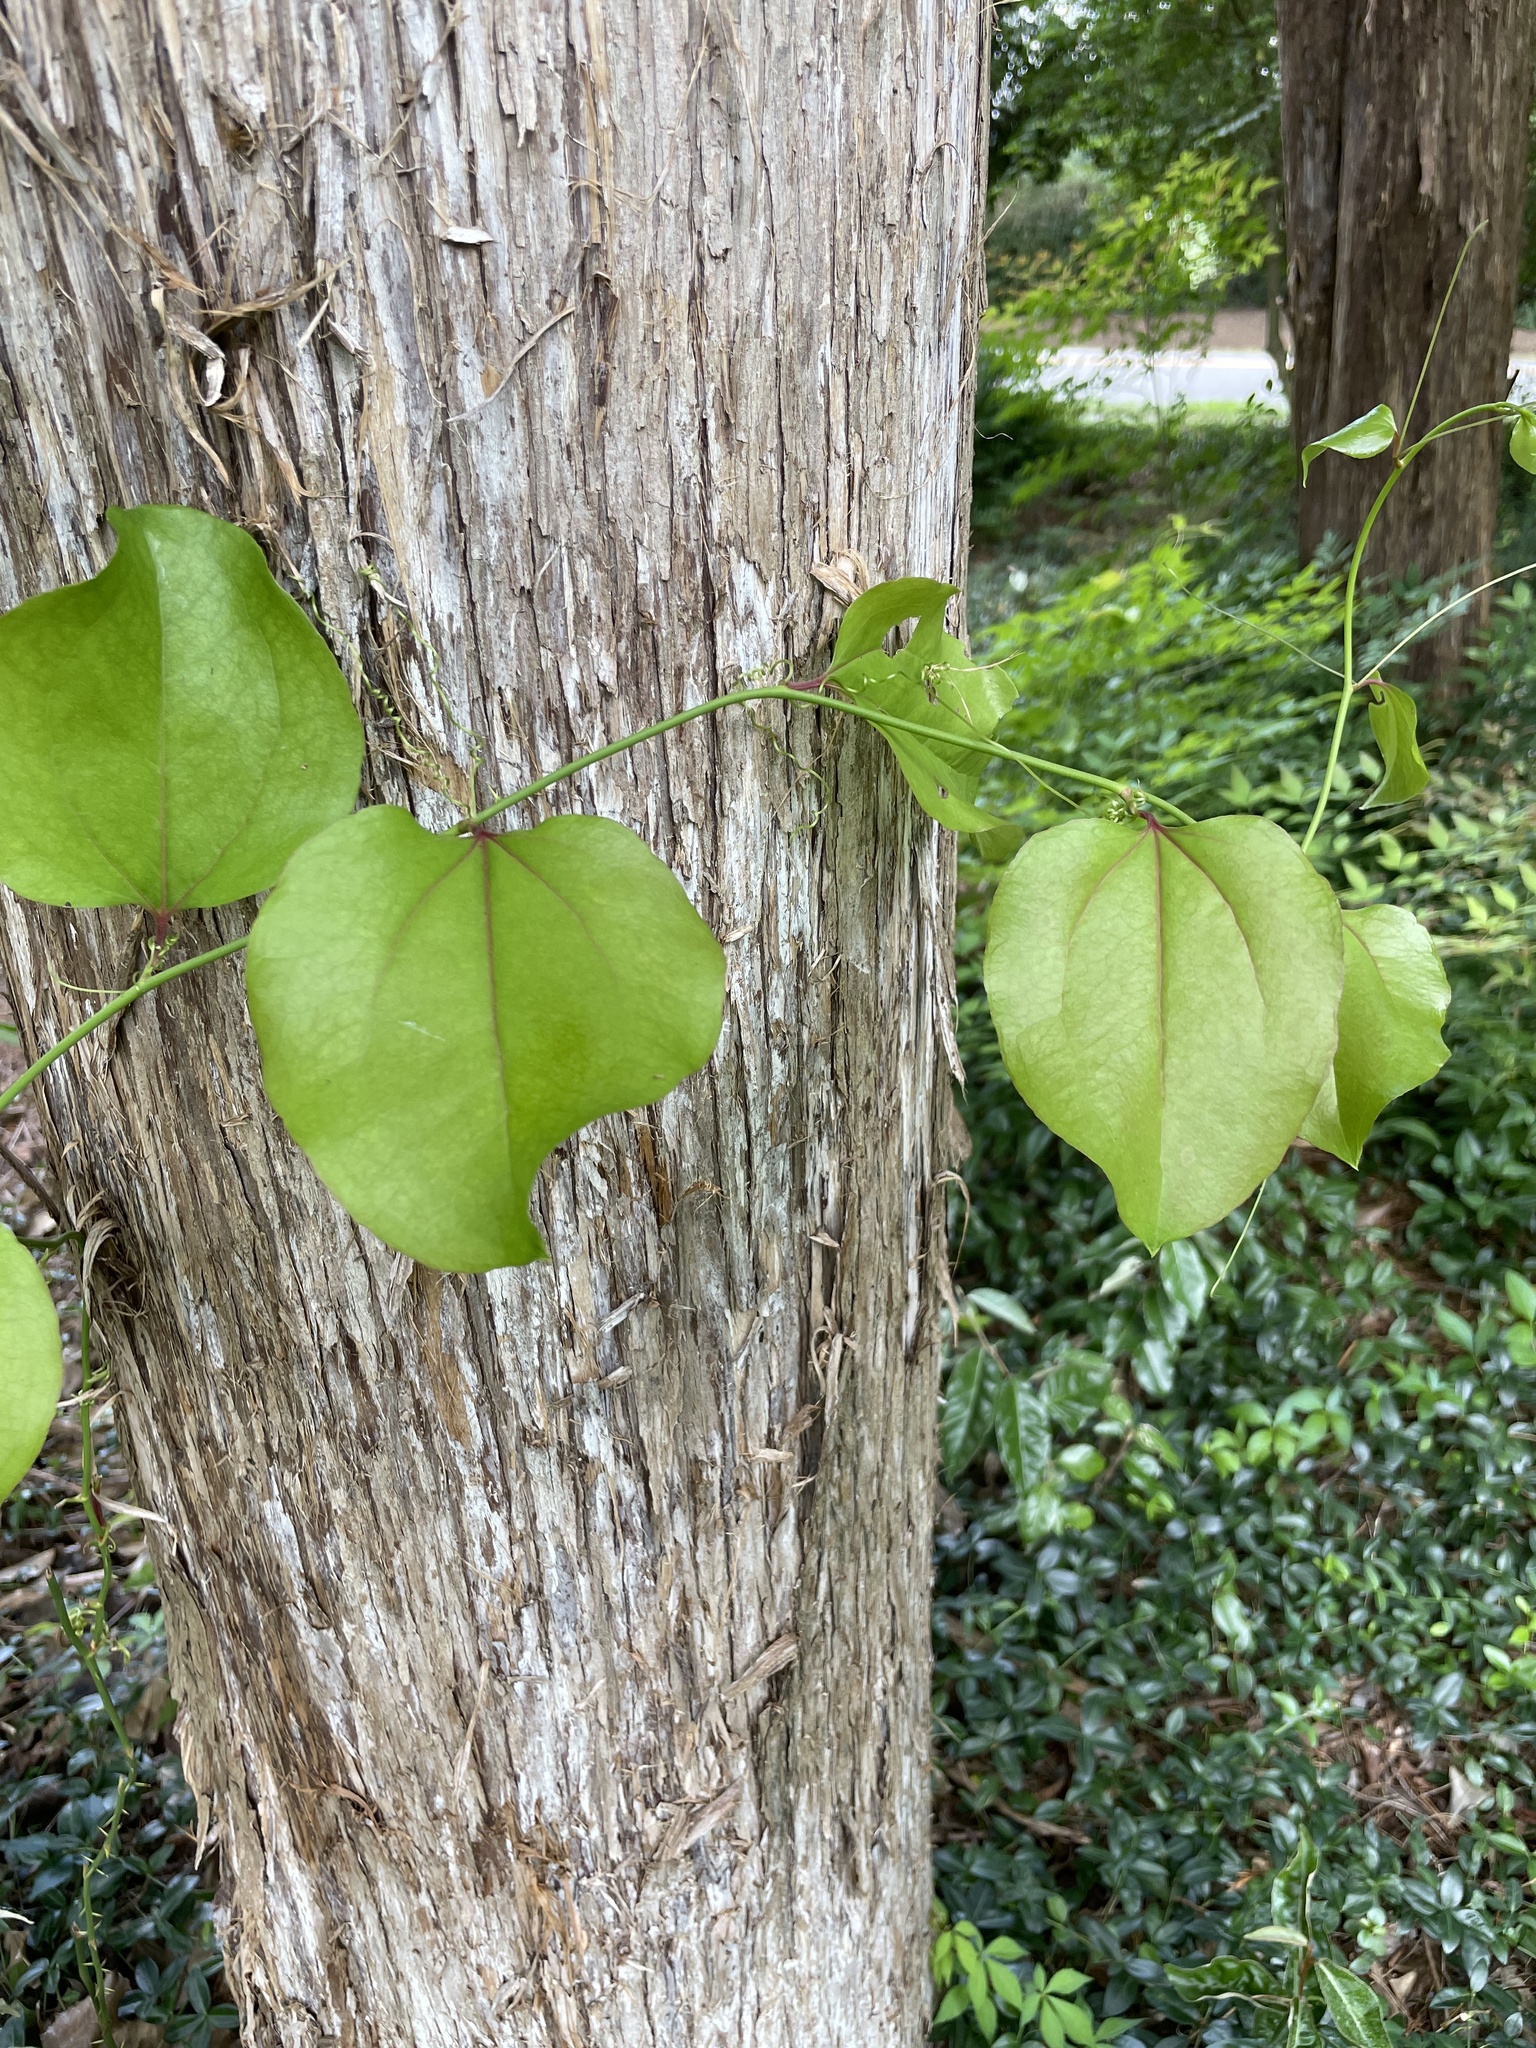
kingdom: Plantae
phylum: Tracheophyta
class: Liliopsida
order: Liliales
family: Smilacaceae
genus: Smilax
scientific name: Smilax rotundifolia
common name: Bullbriar
